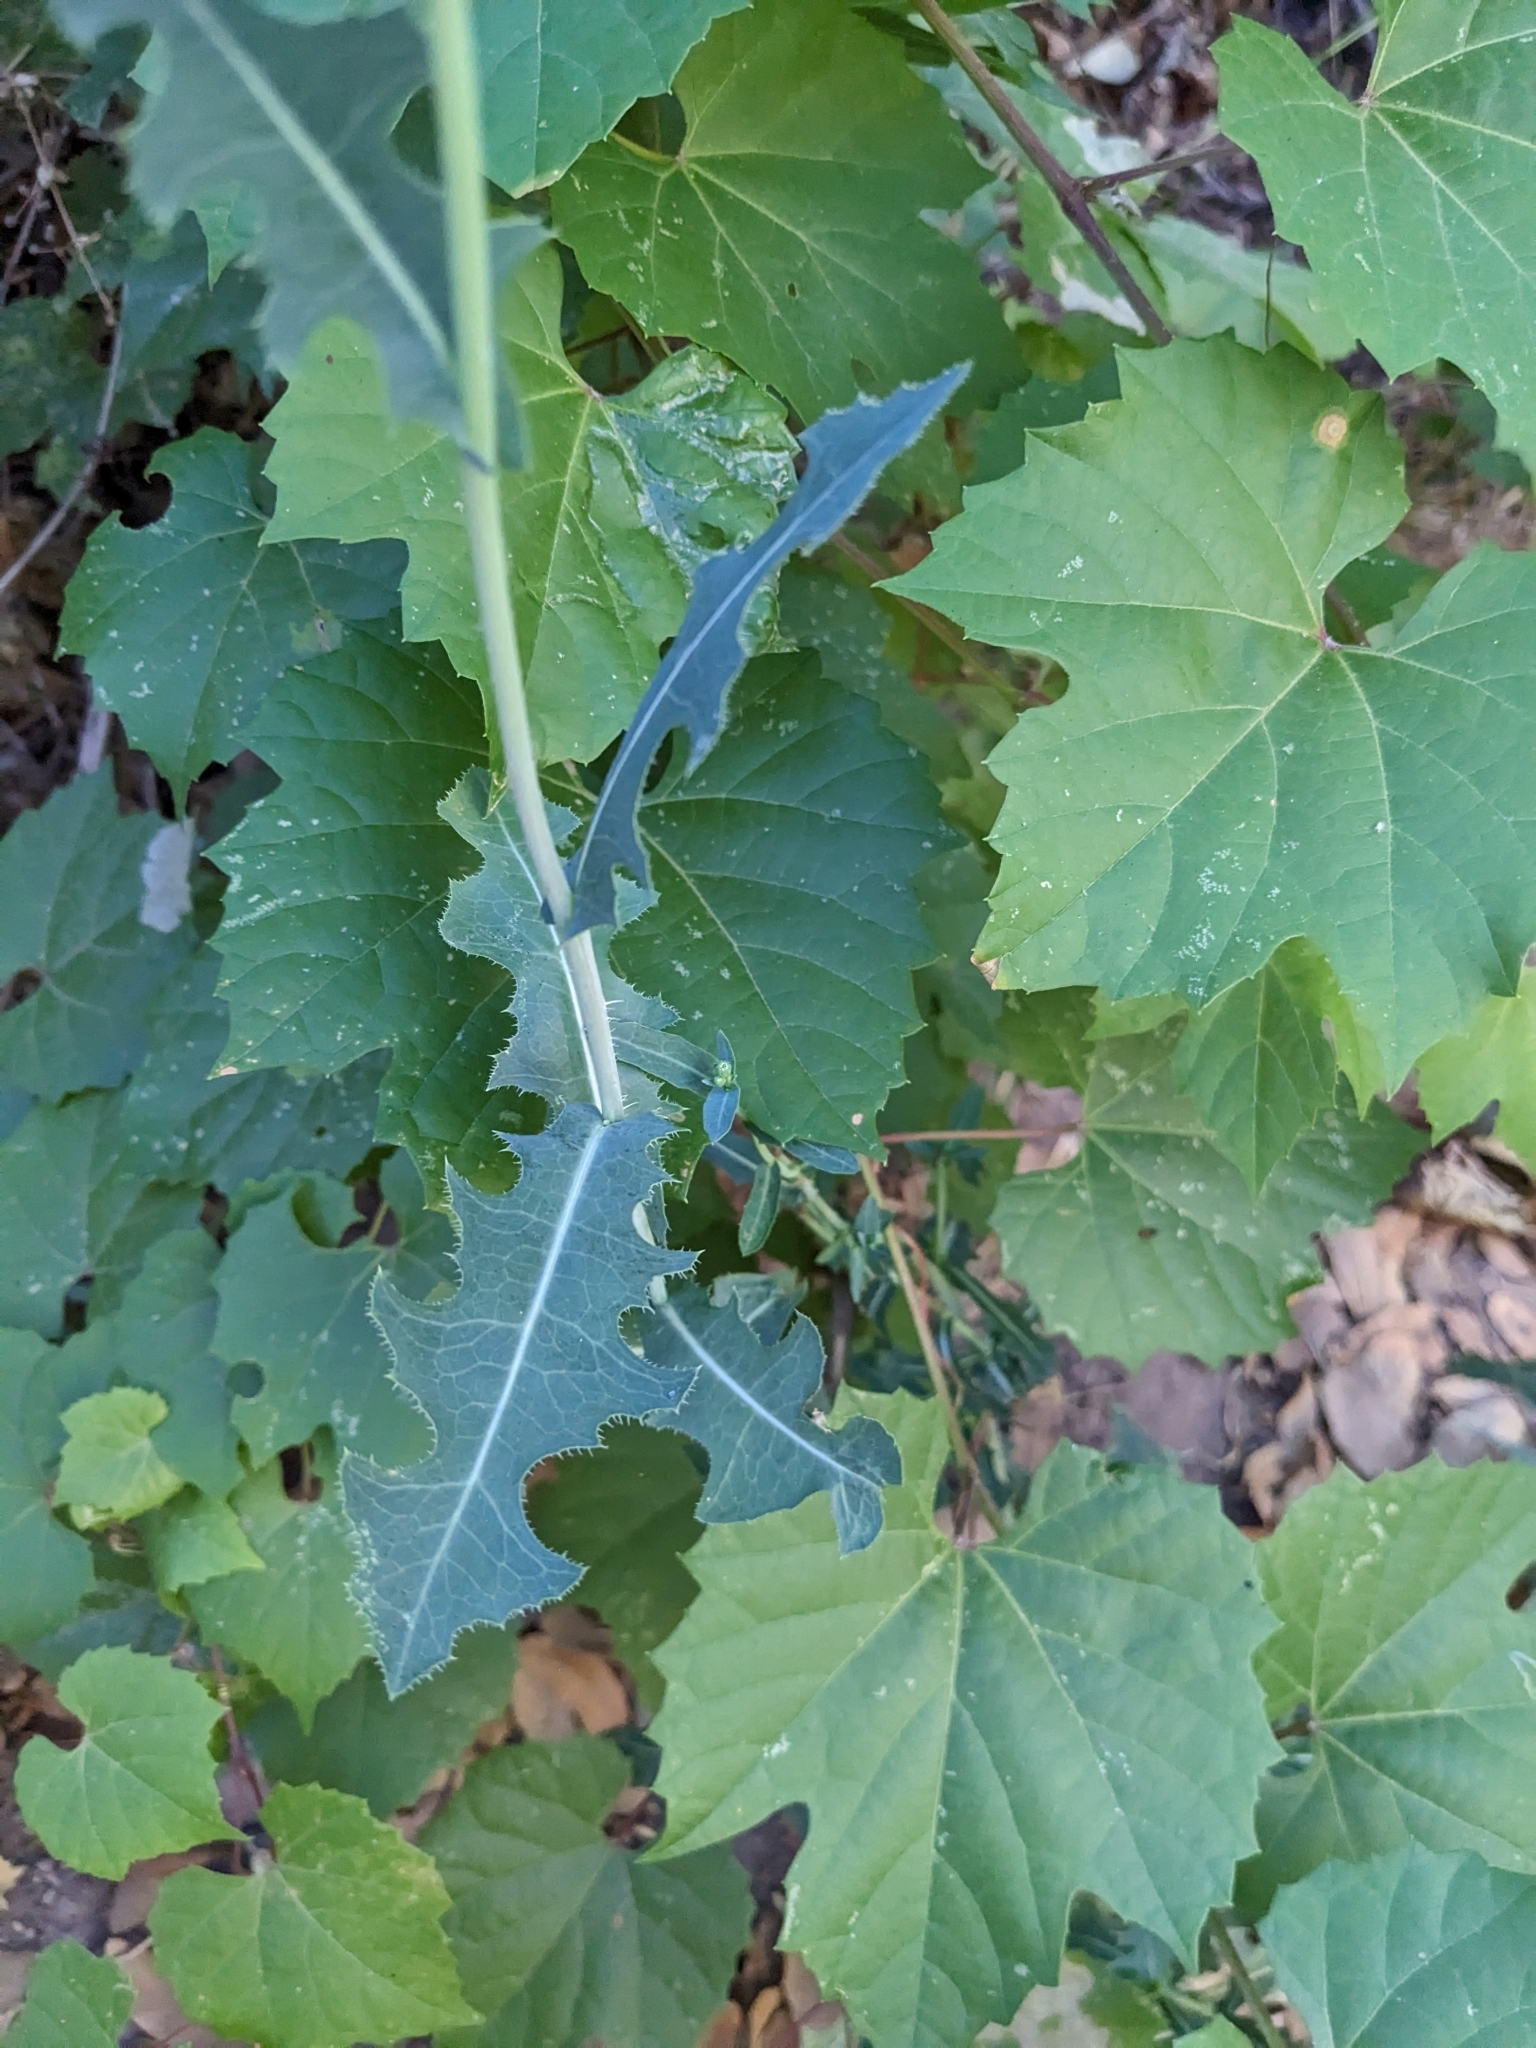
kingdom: Plantae
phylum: Tracheophyta
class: Magnoliopsida
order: Asterales
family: Asteraceae
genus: Lactuca
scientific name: Lactuca serriola
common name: Prickly lettuce
